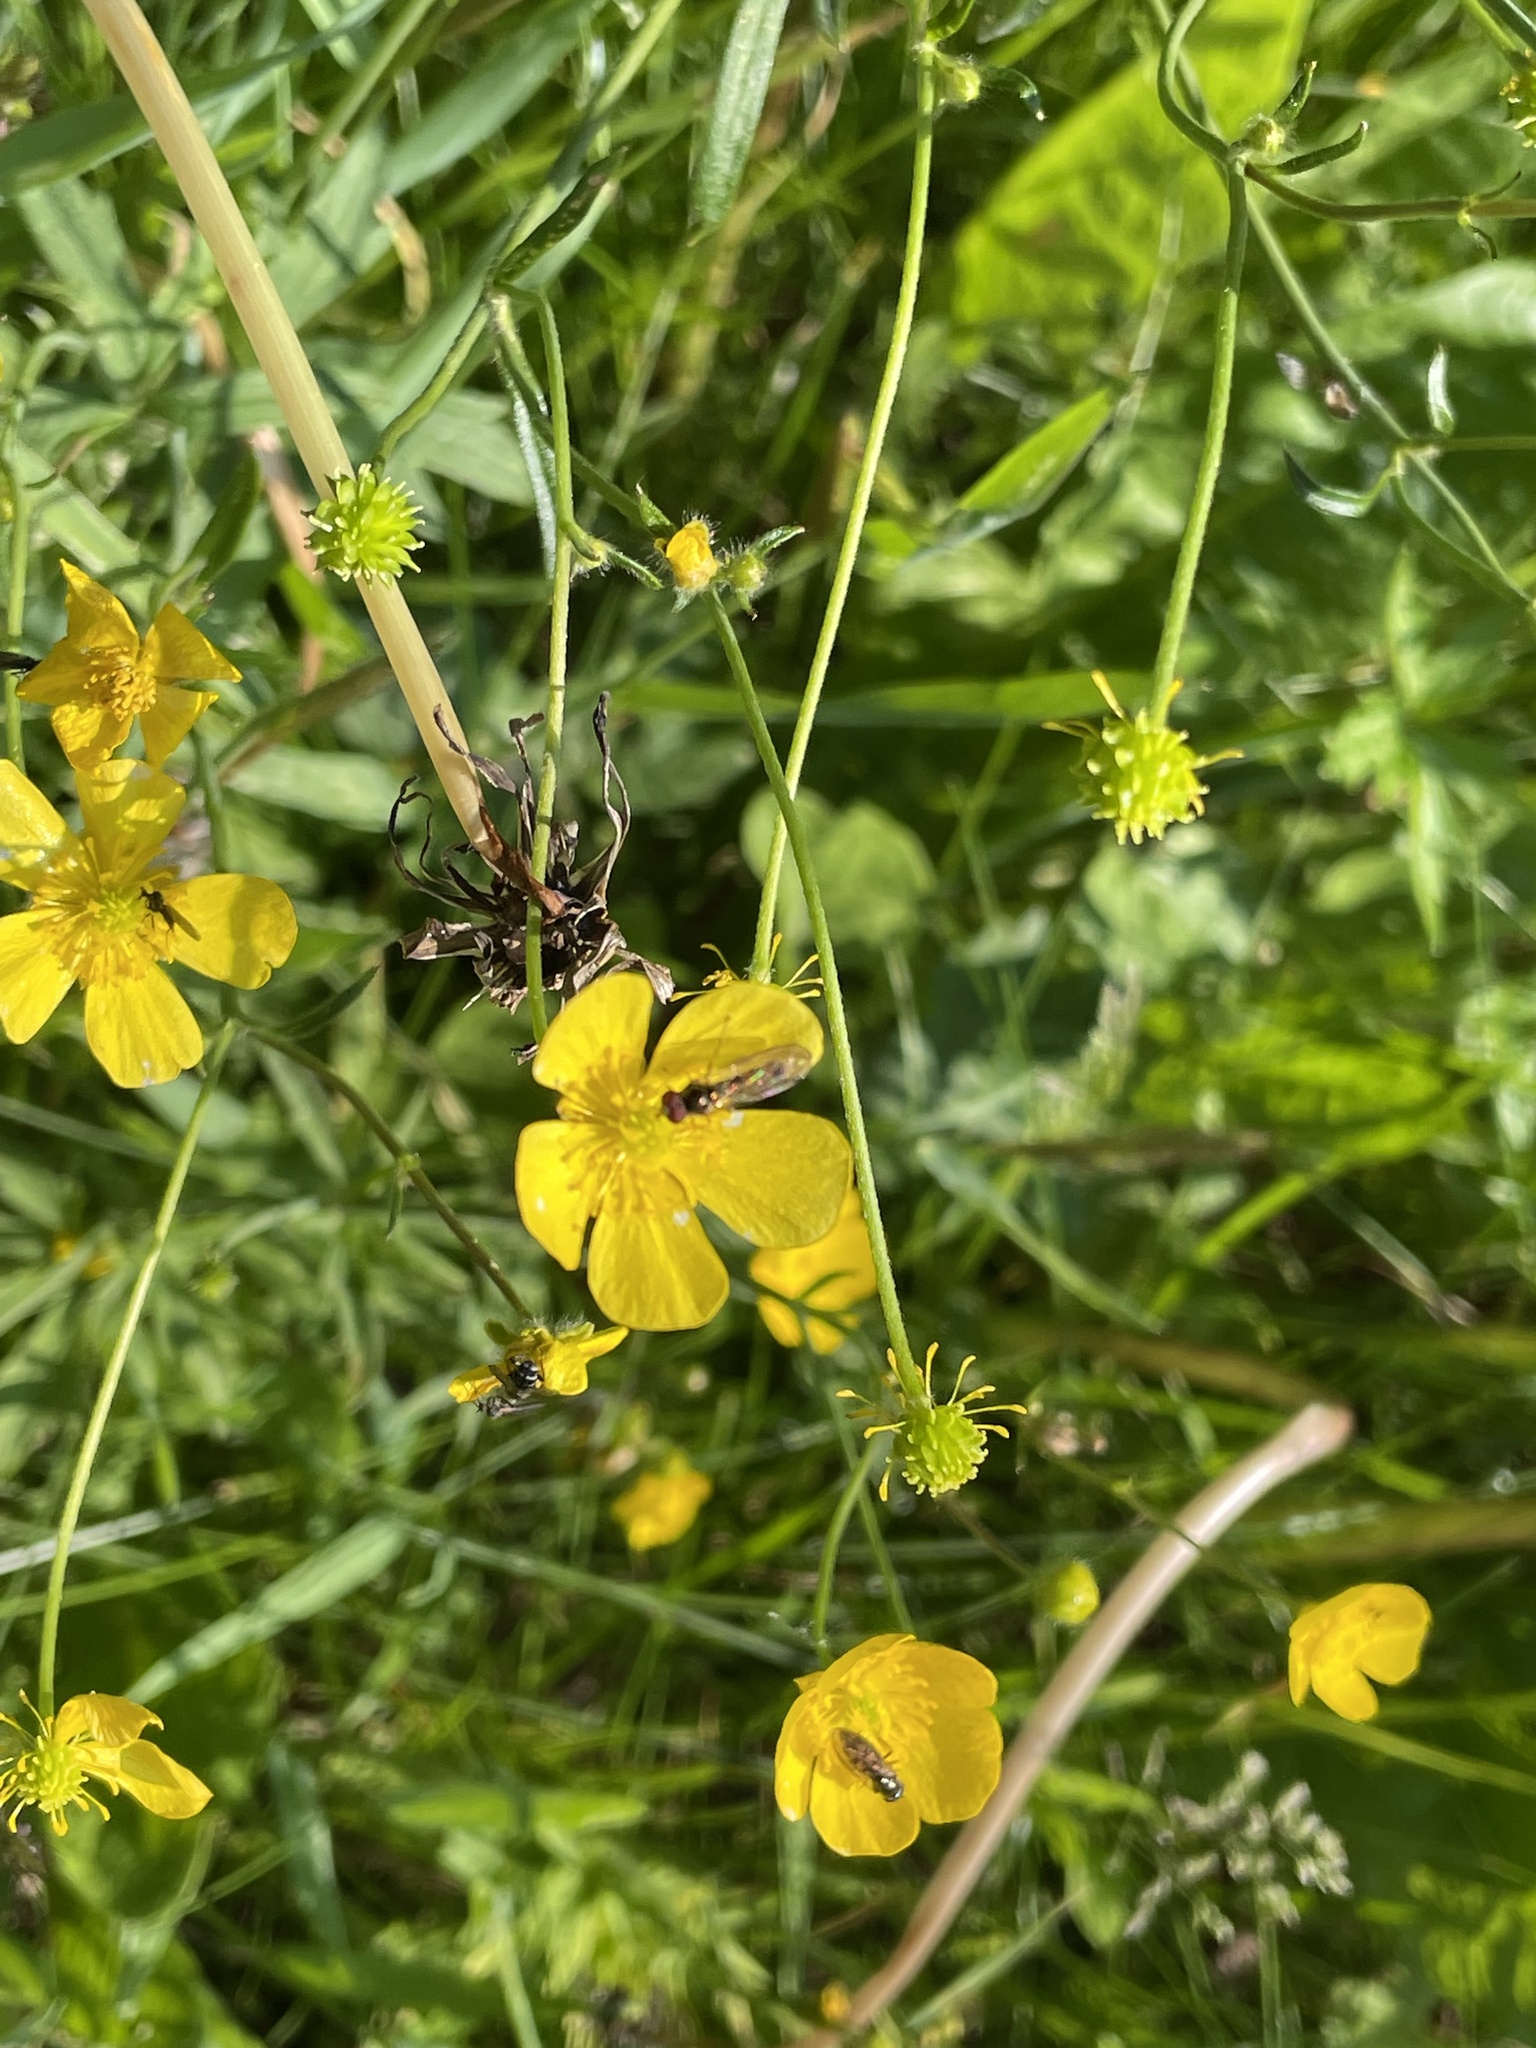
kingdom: Plantae
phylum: Tracheophyta
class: Magnoliopsida
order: Ranunculales
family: Ranunculaceae
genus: Ranunculus
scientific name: Ranunculus acris
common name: Meadow buttercup
